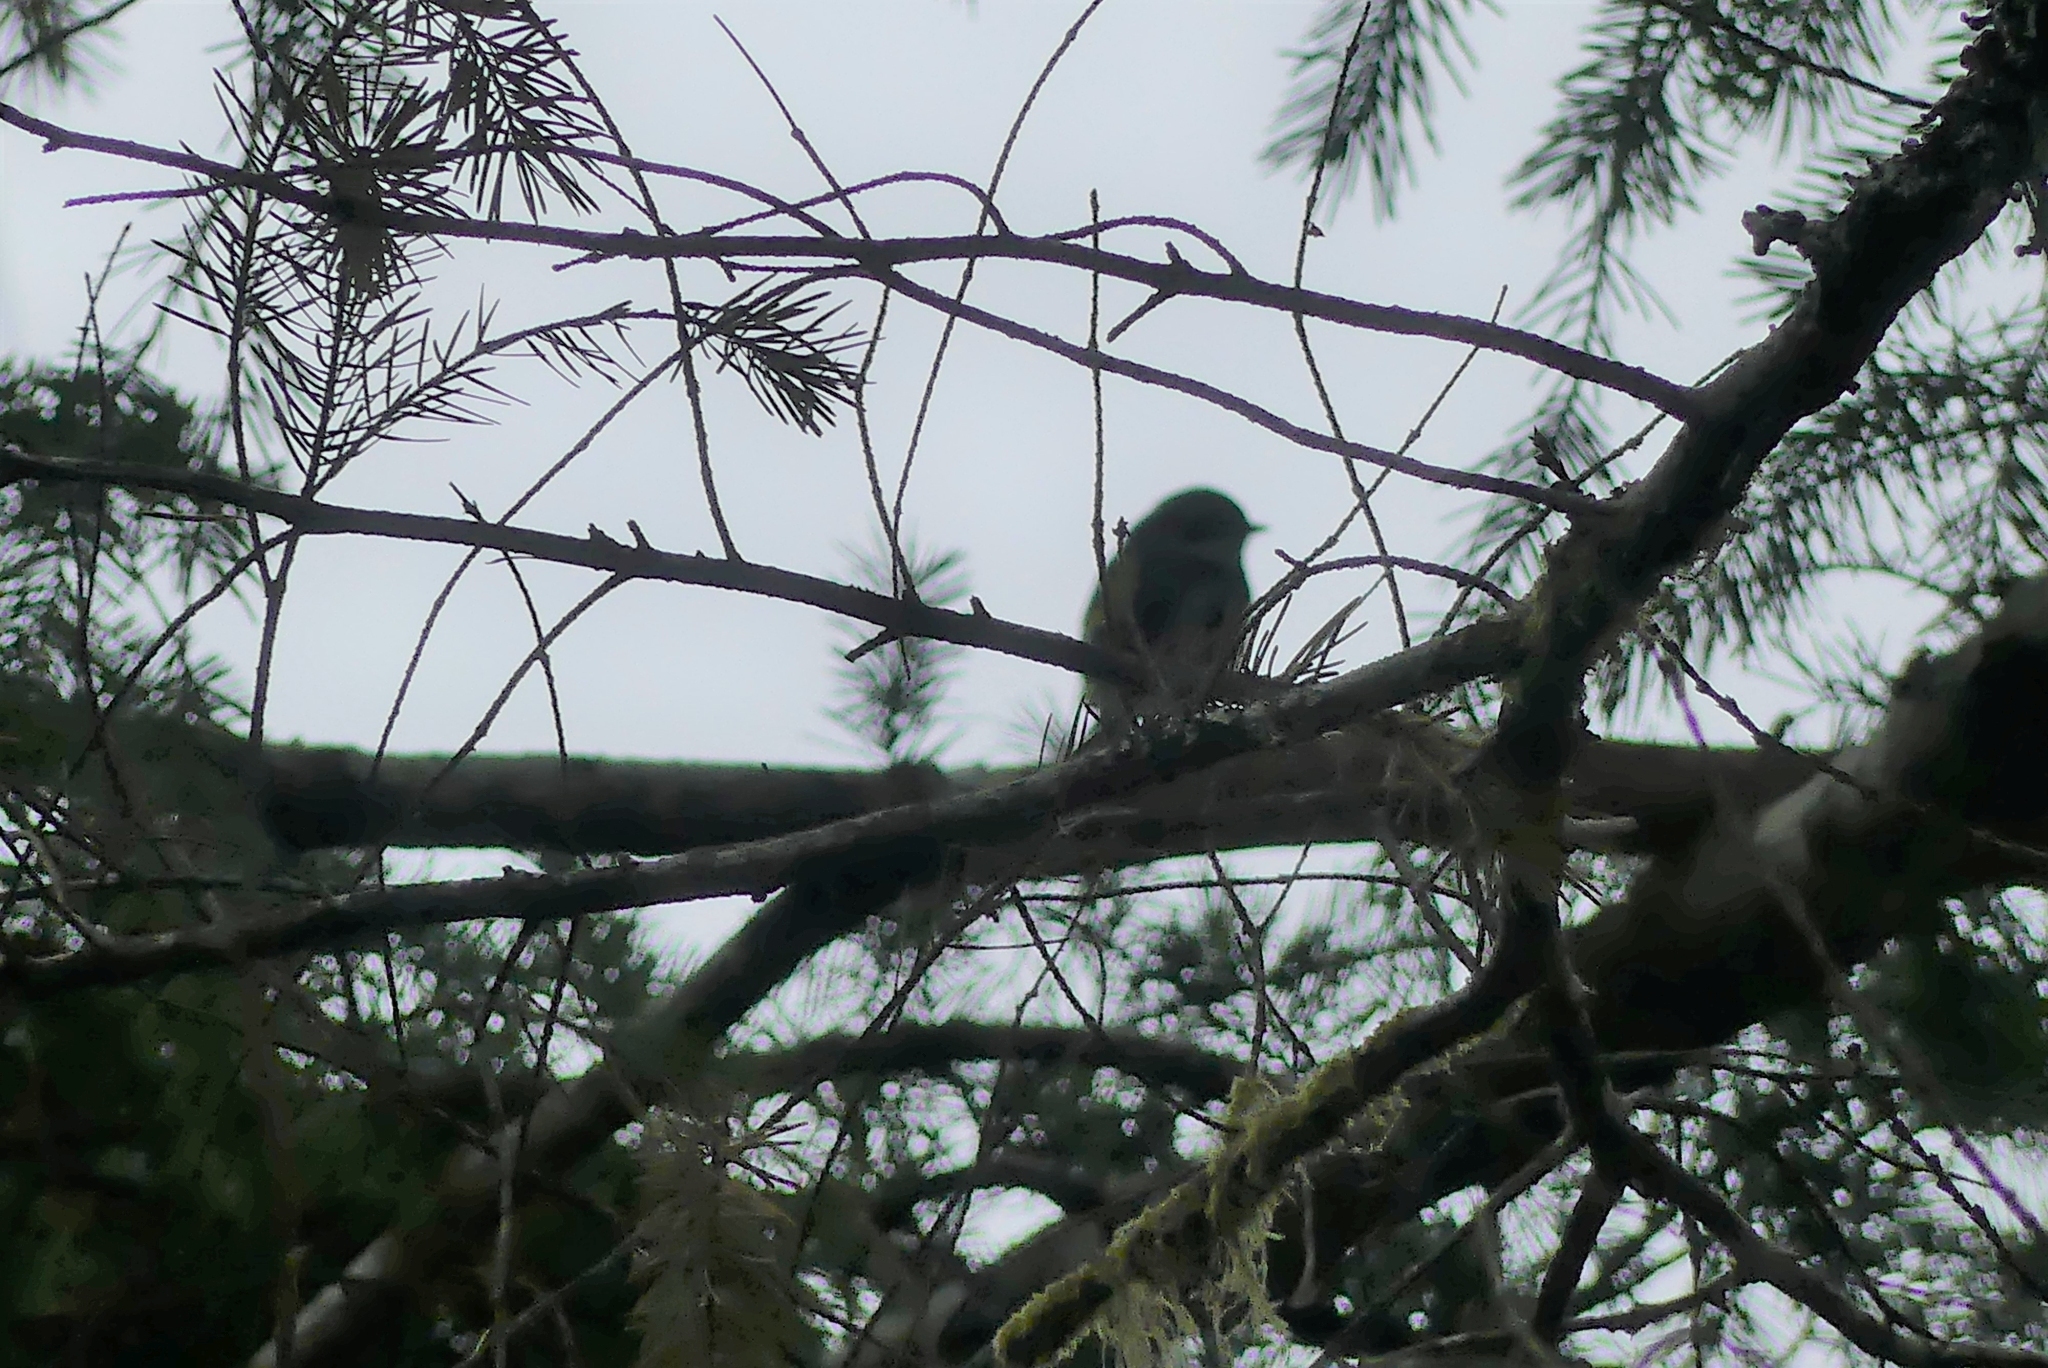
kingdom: Animalia
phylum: Chordata
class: Aves
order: Passeriformes
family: Parulidae
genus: Setophaga
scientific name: Setophaga coronata
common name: Myrtle warbler
